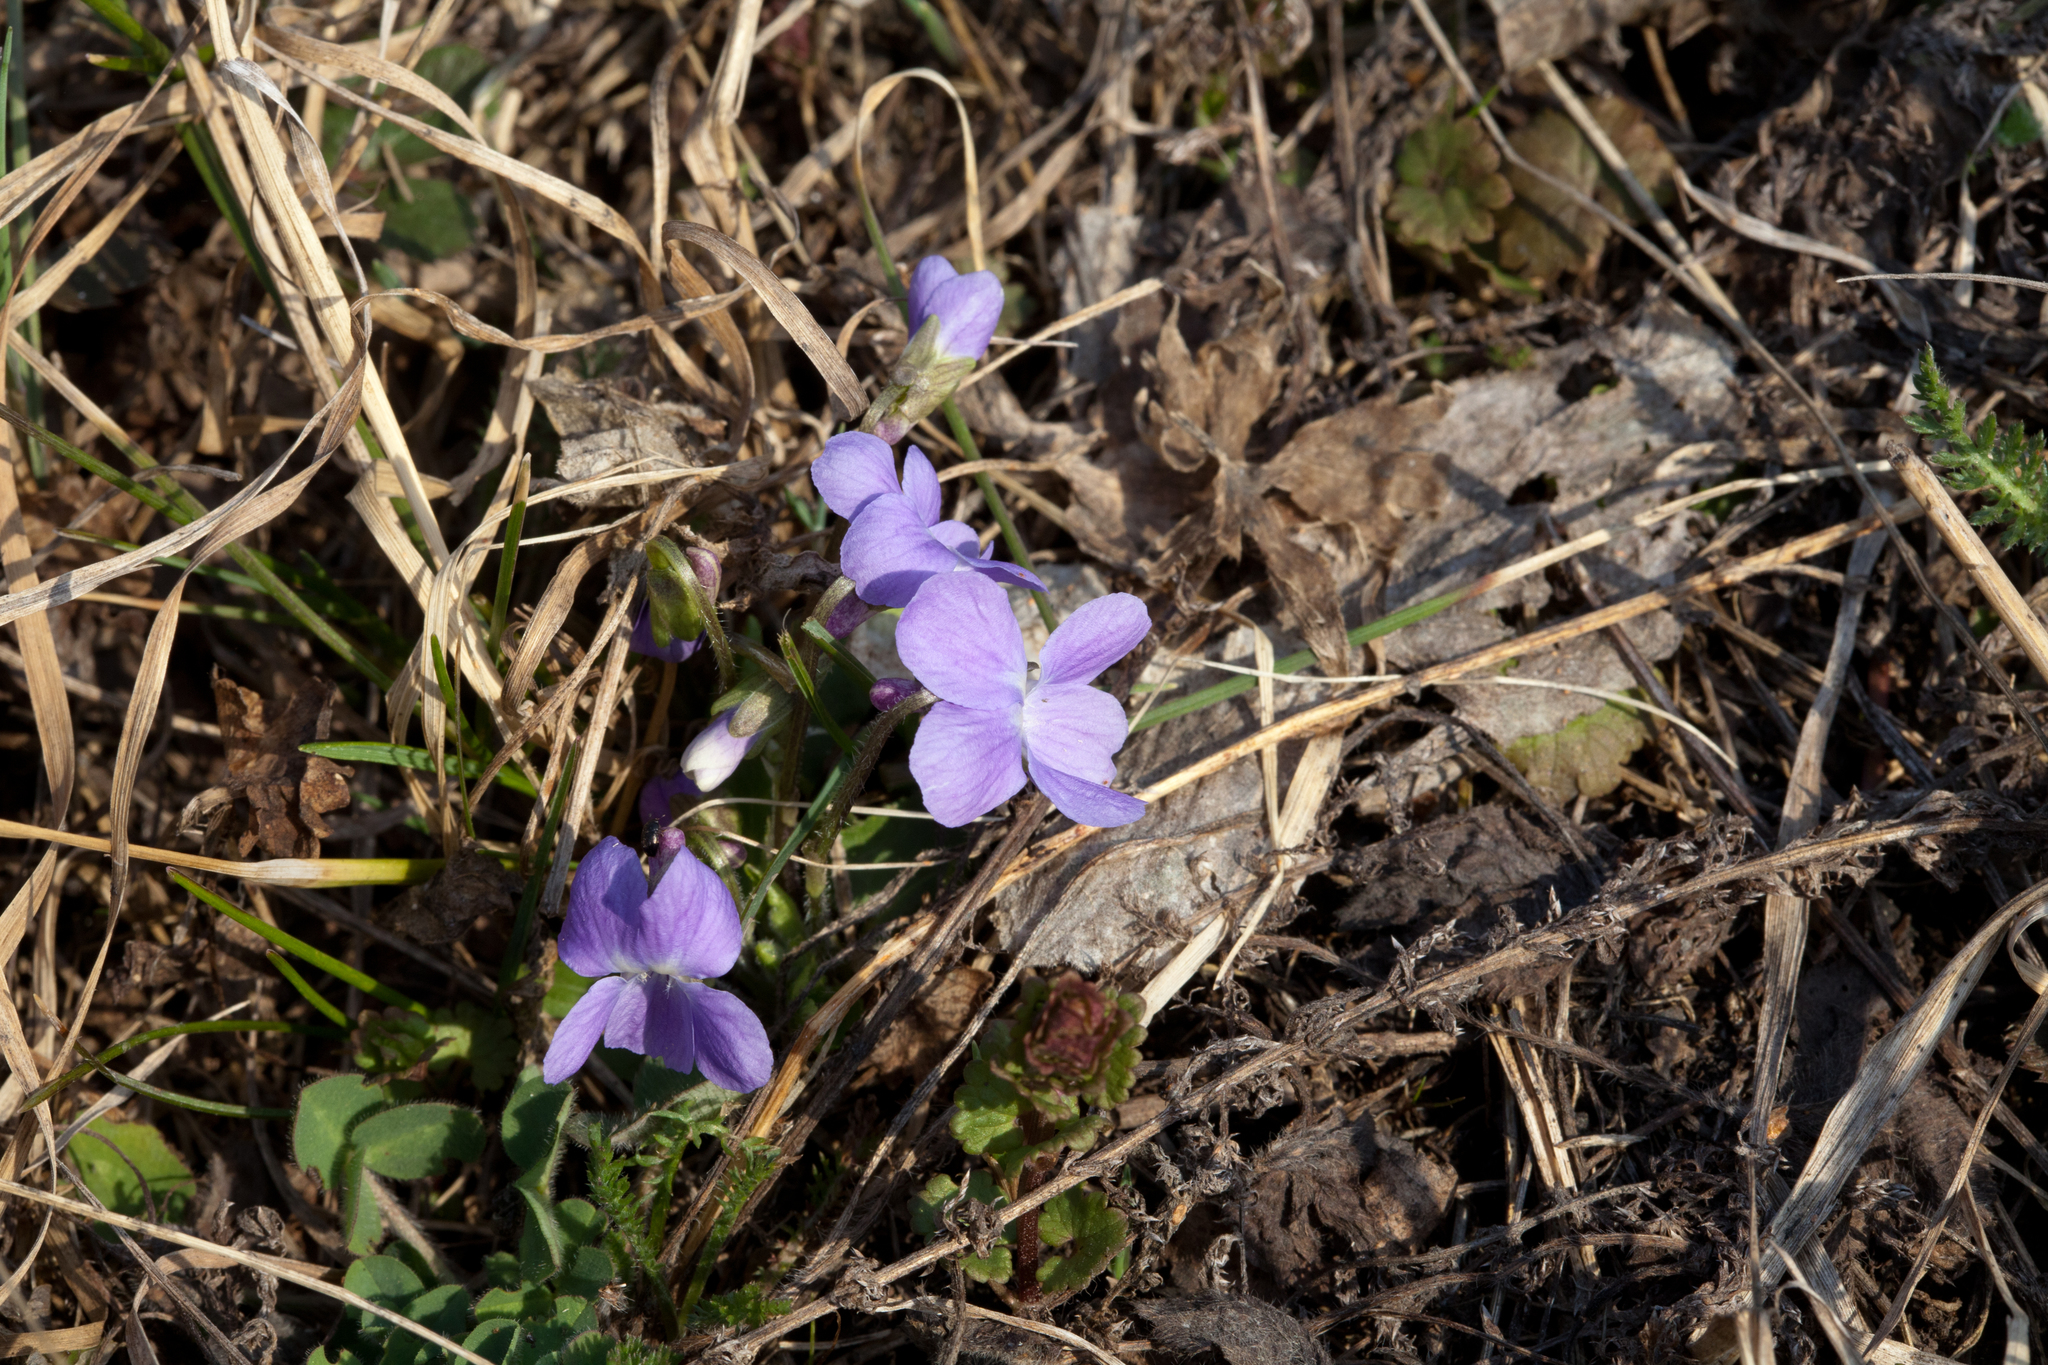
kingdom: Plantae
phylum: Tracheophyta
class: Magnoliopsida
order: Malpighiales
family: Violaceae
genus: Viola
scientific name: Viola hirta
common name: Hairy violet
